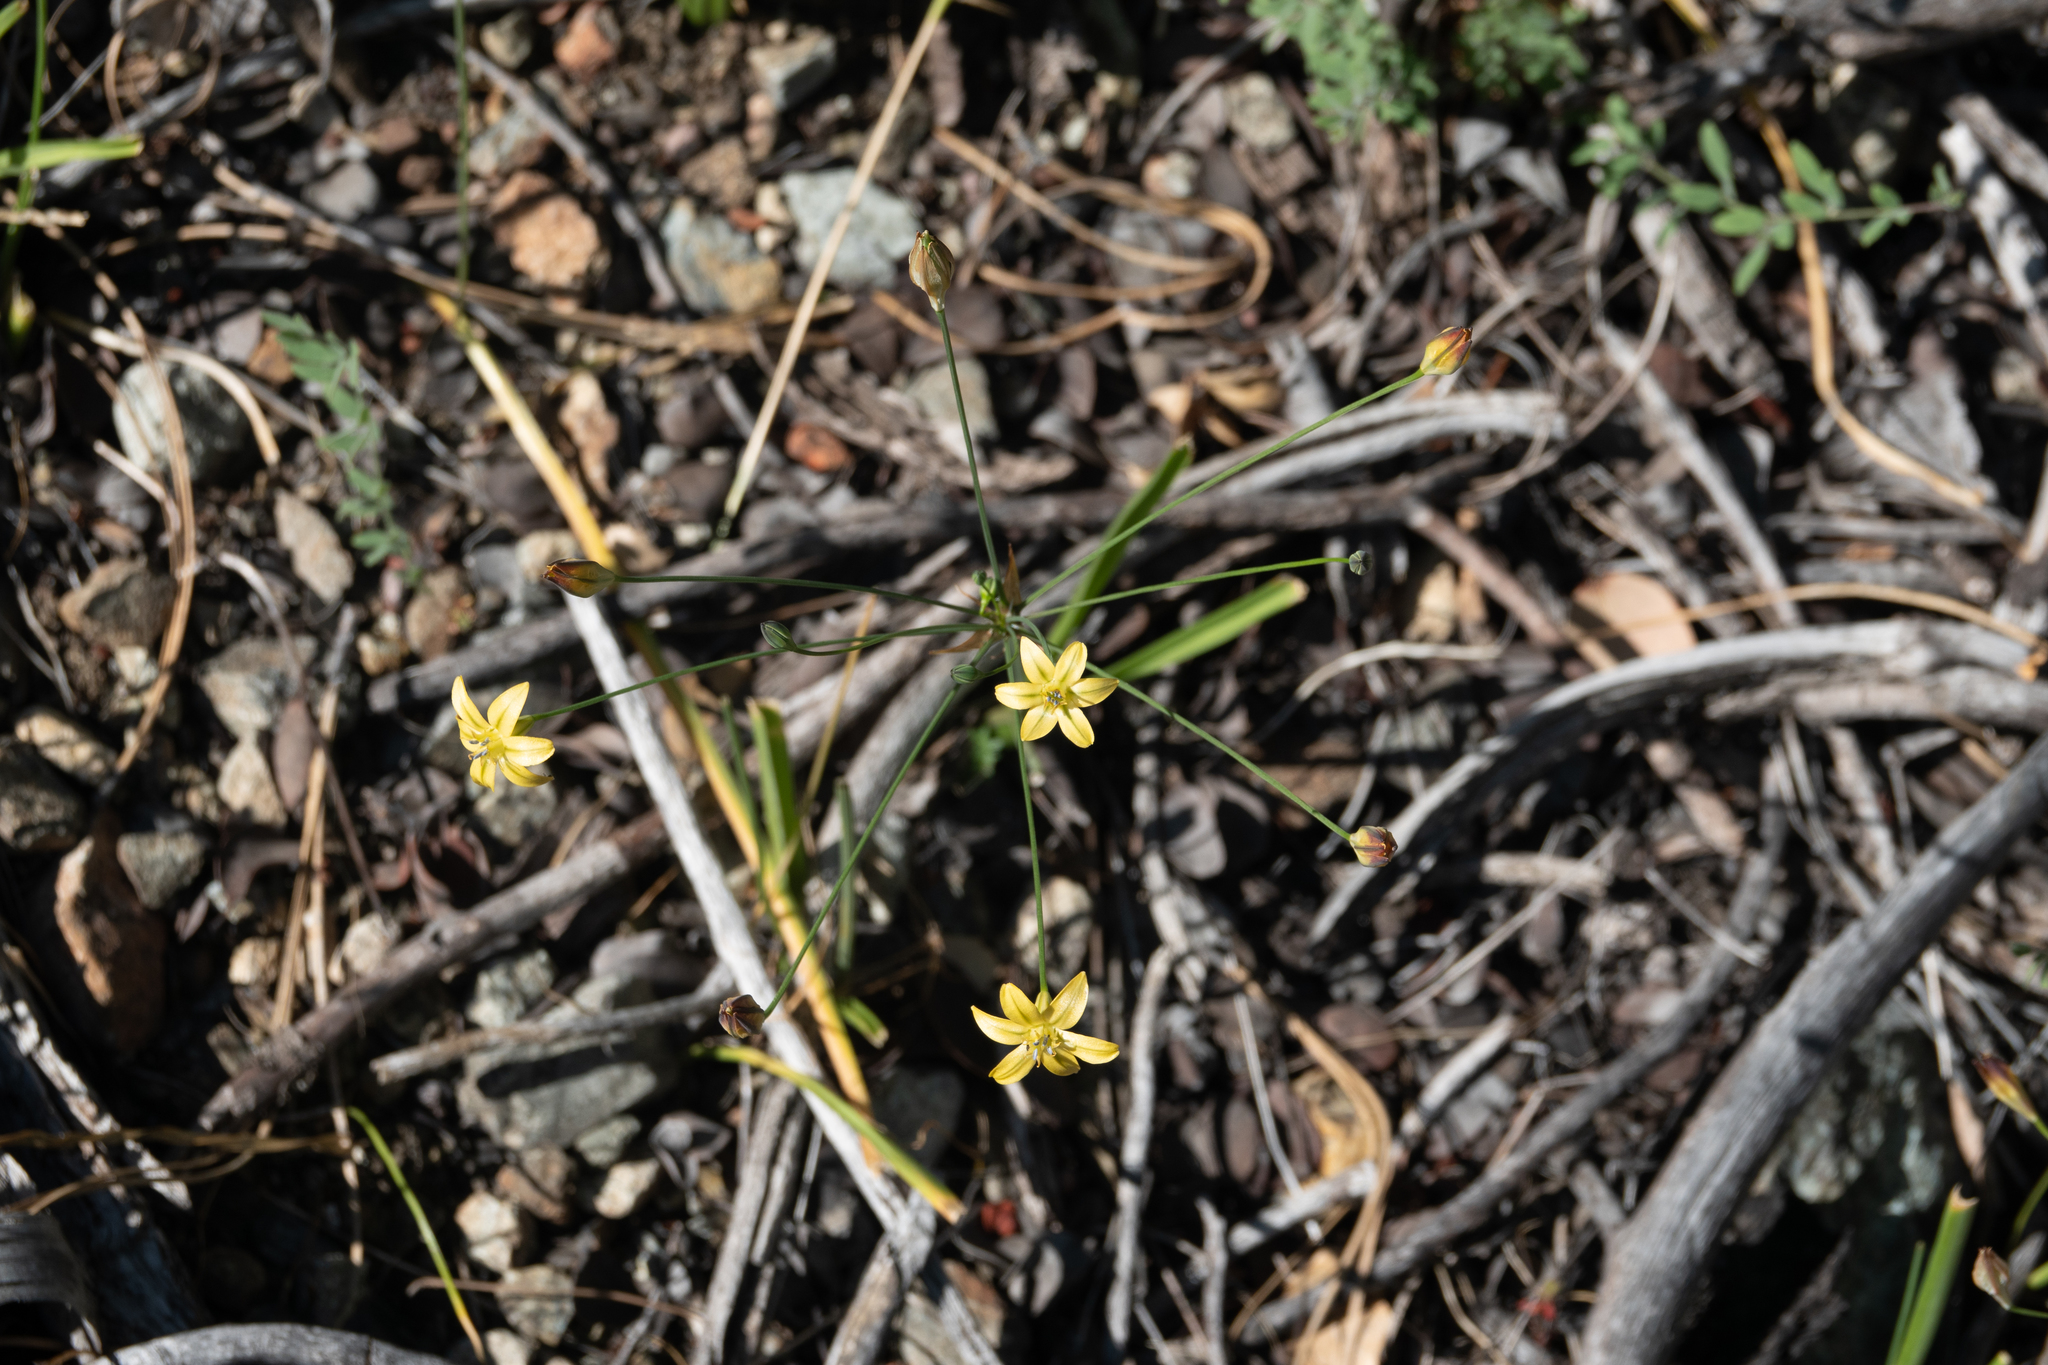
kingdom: Plantae
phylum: Tracheophyta
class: Liliopsida
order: Asparagales
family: Asparagaceae
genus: Triteleia
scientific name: Triteleia ixioides
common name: Yellow-brodiaea
